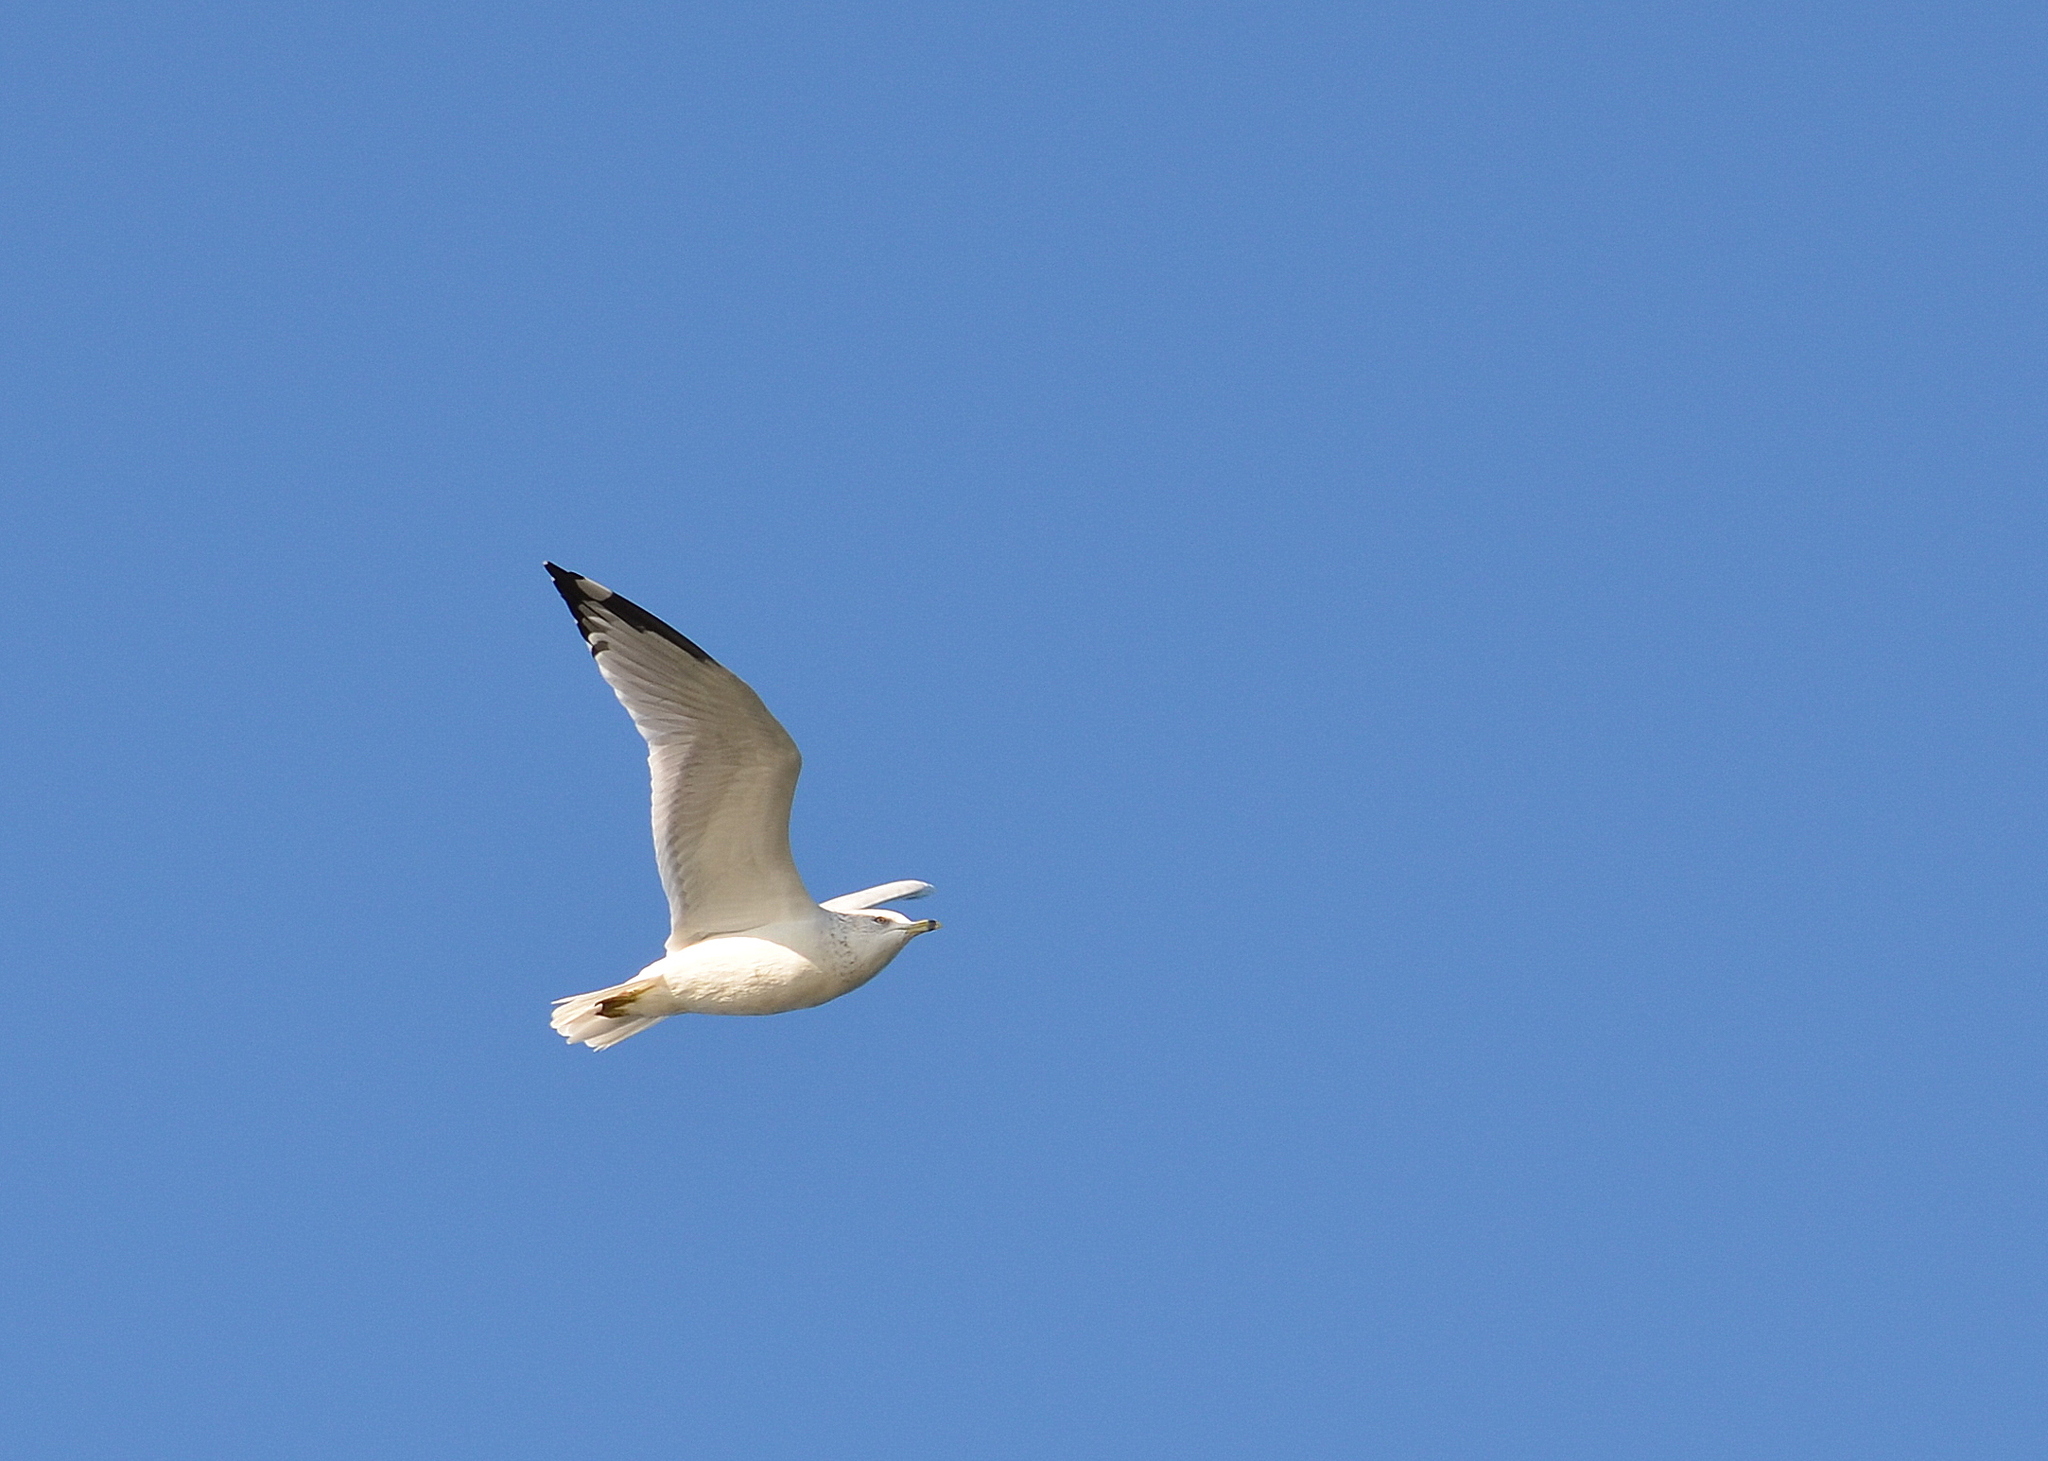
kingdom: Animalia
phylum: Chordata
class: Aves
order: Charadriiformes
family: Laridae
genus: Larus
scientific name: Larus delawarensis
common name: Ring-billed gull
